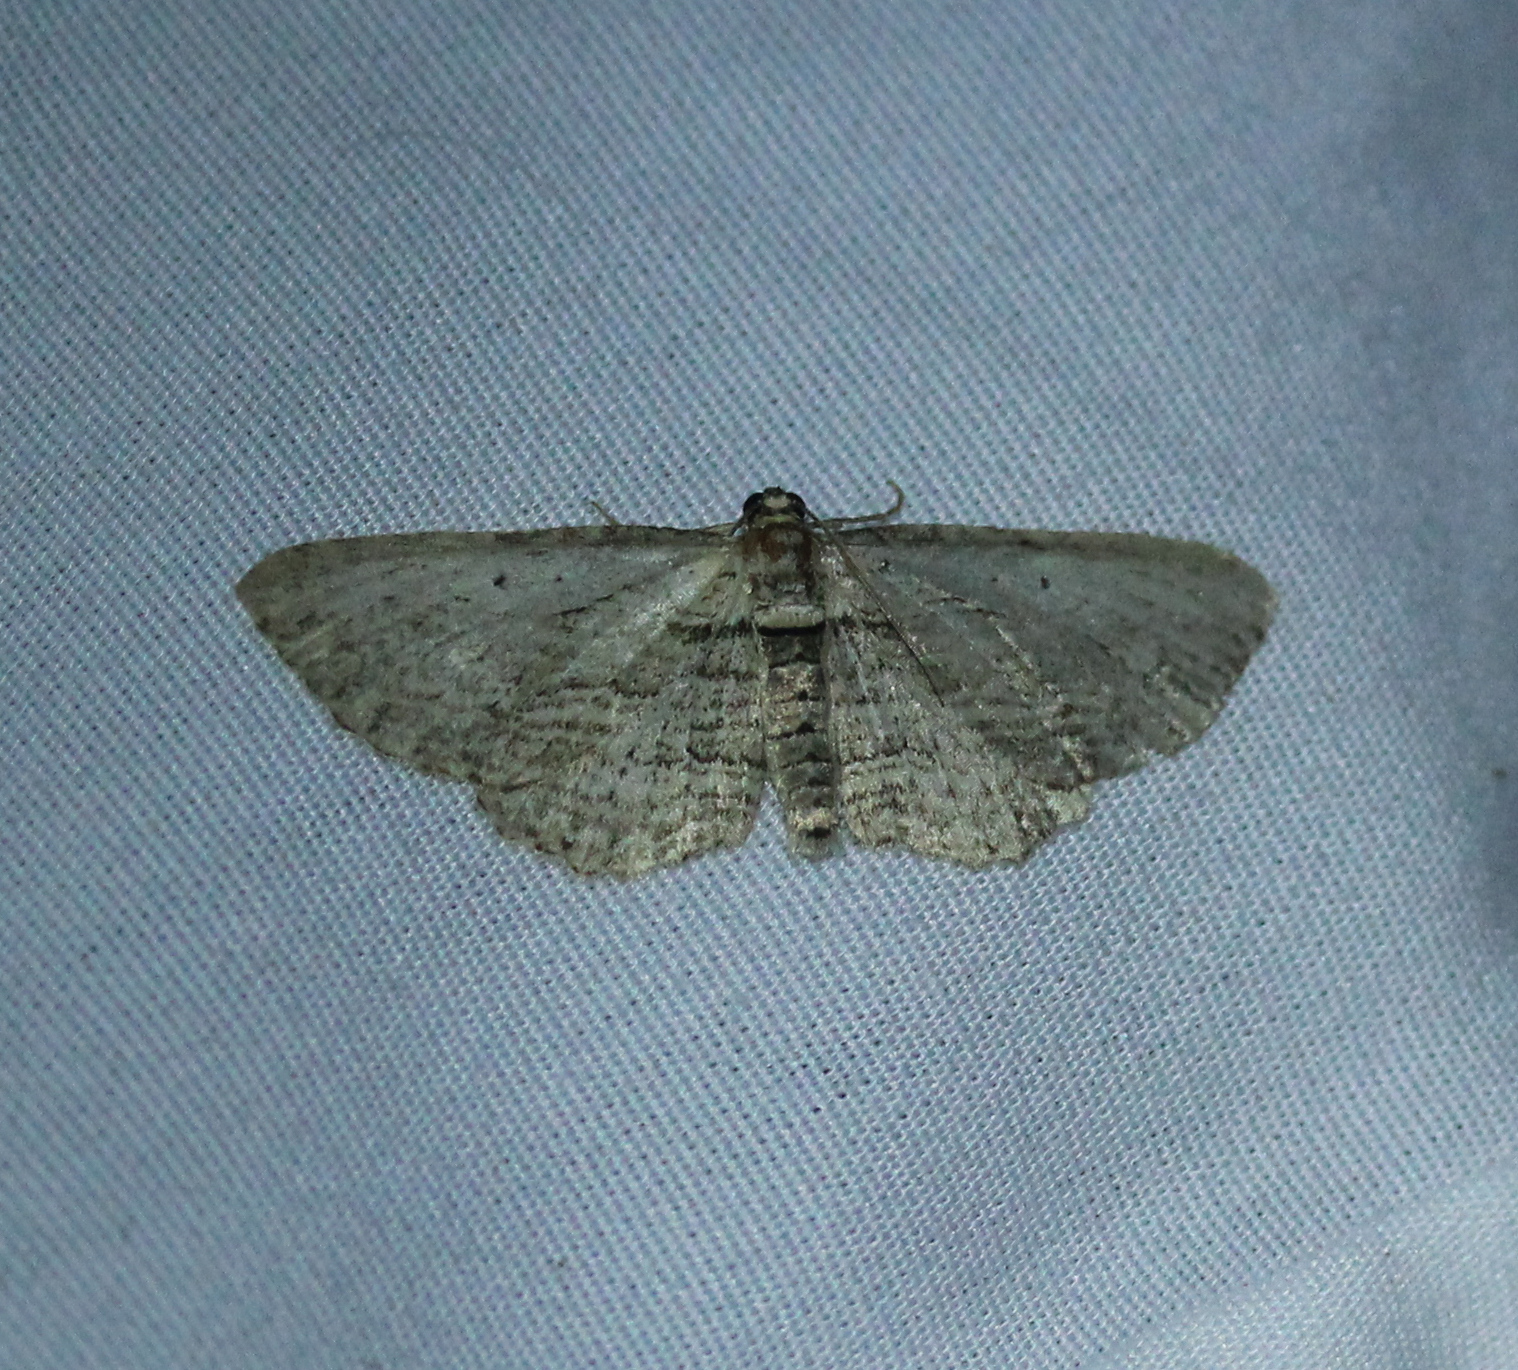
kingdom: Animalia
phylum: Arthropoda
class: Insecta
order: Lepidoptera
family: Geometridae
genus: Horisme
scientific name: Horisme intestinata
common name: Brown bark carpet
